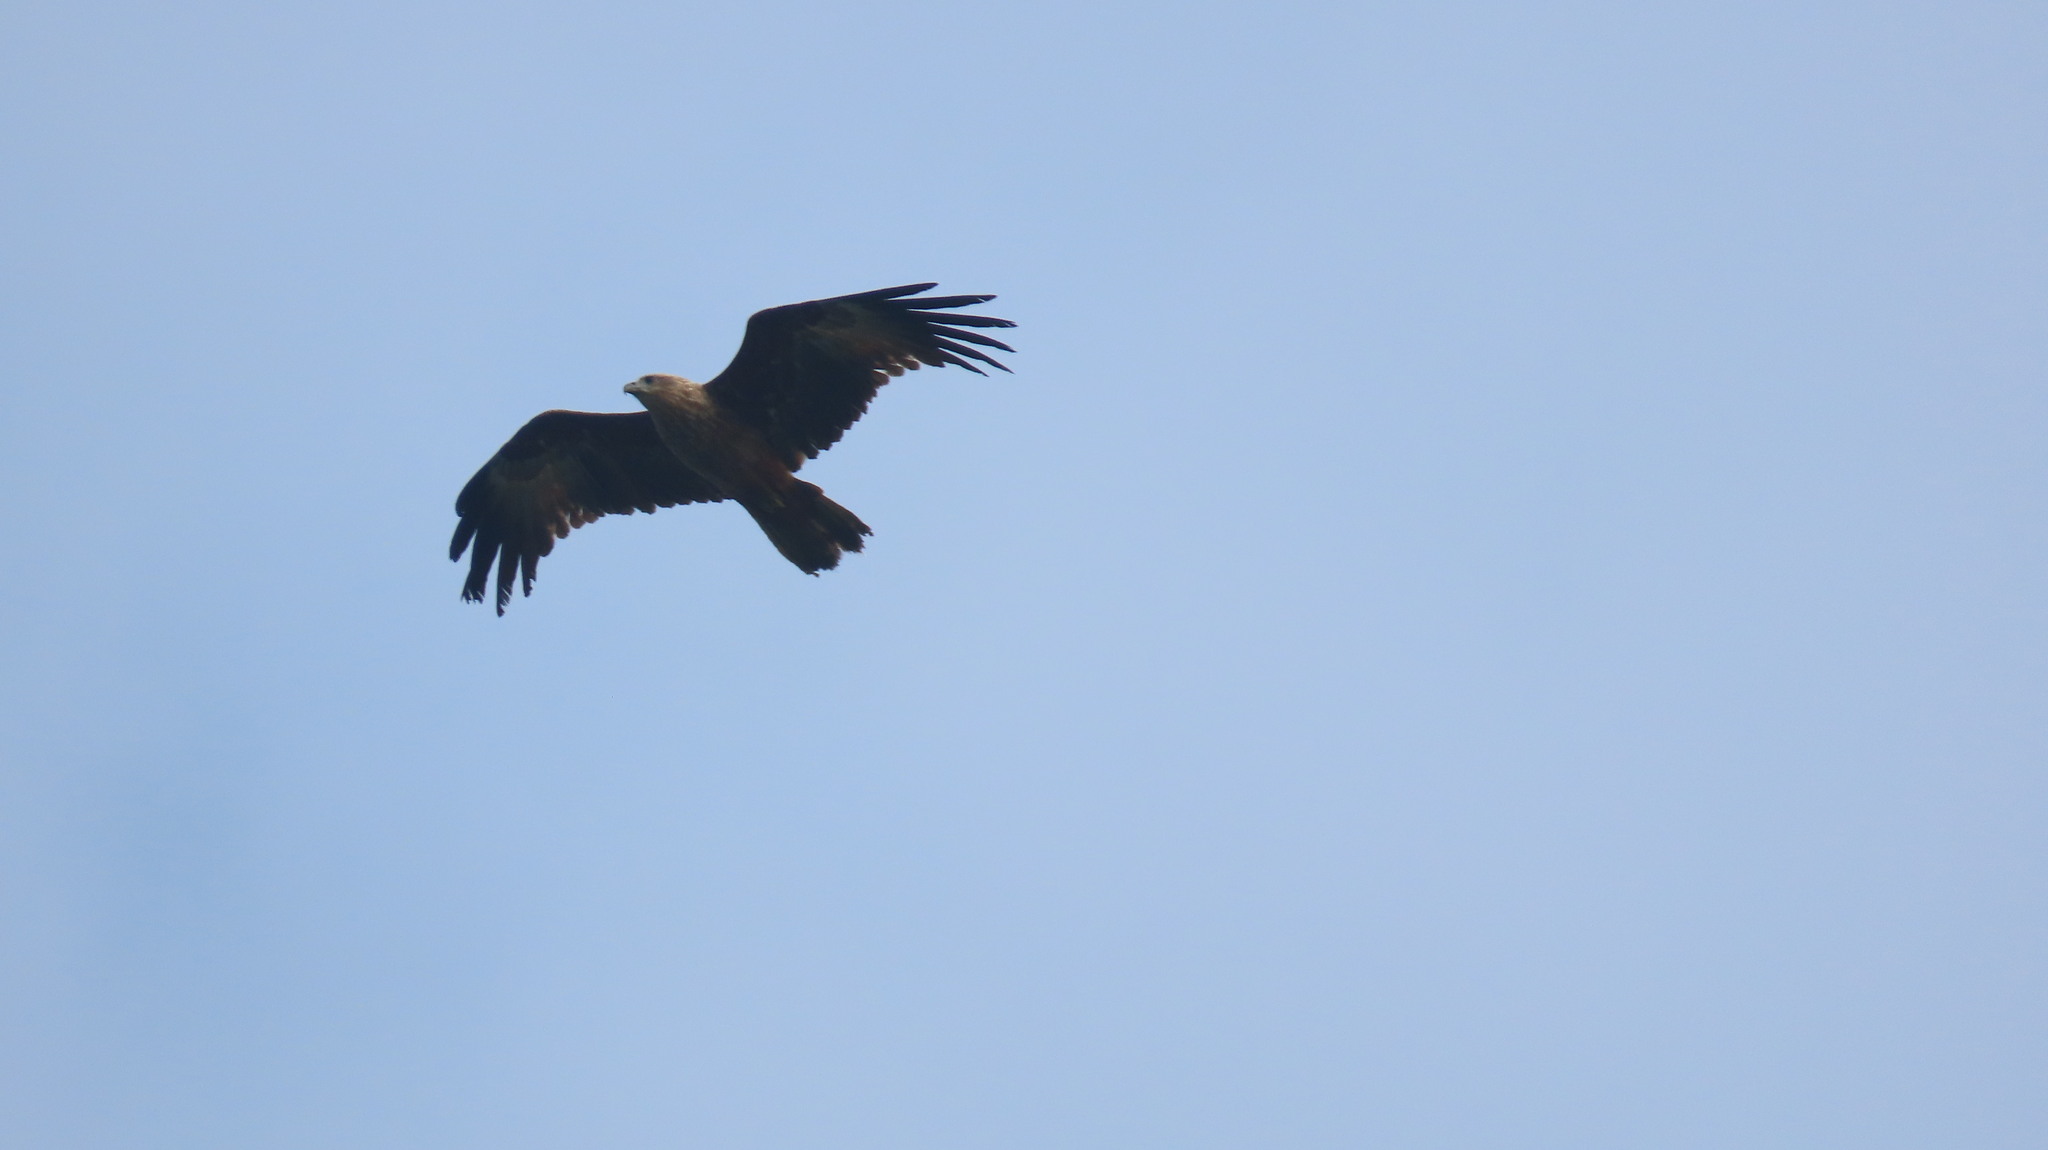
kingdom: Animalia
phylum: Chordata
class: Aves
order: Accipitriformes
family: Accipitridae
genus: Haliastur
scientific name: Haliastur indus
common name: Brahminy kite
